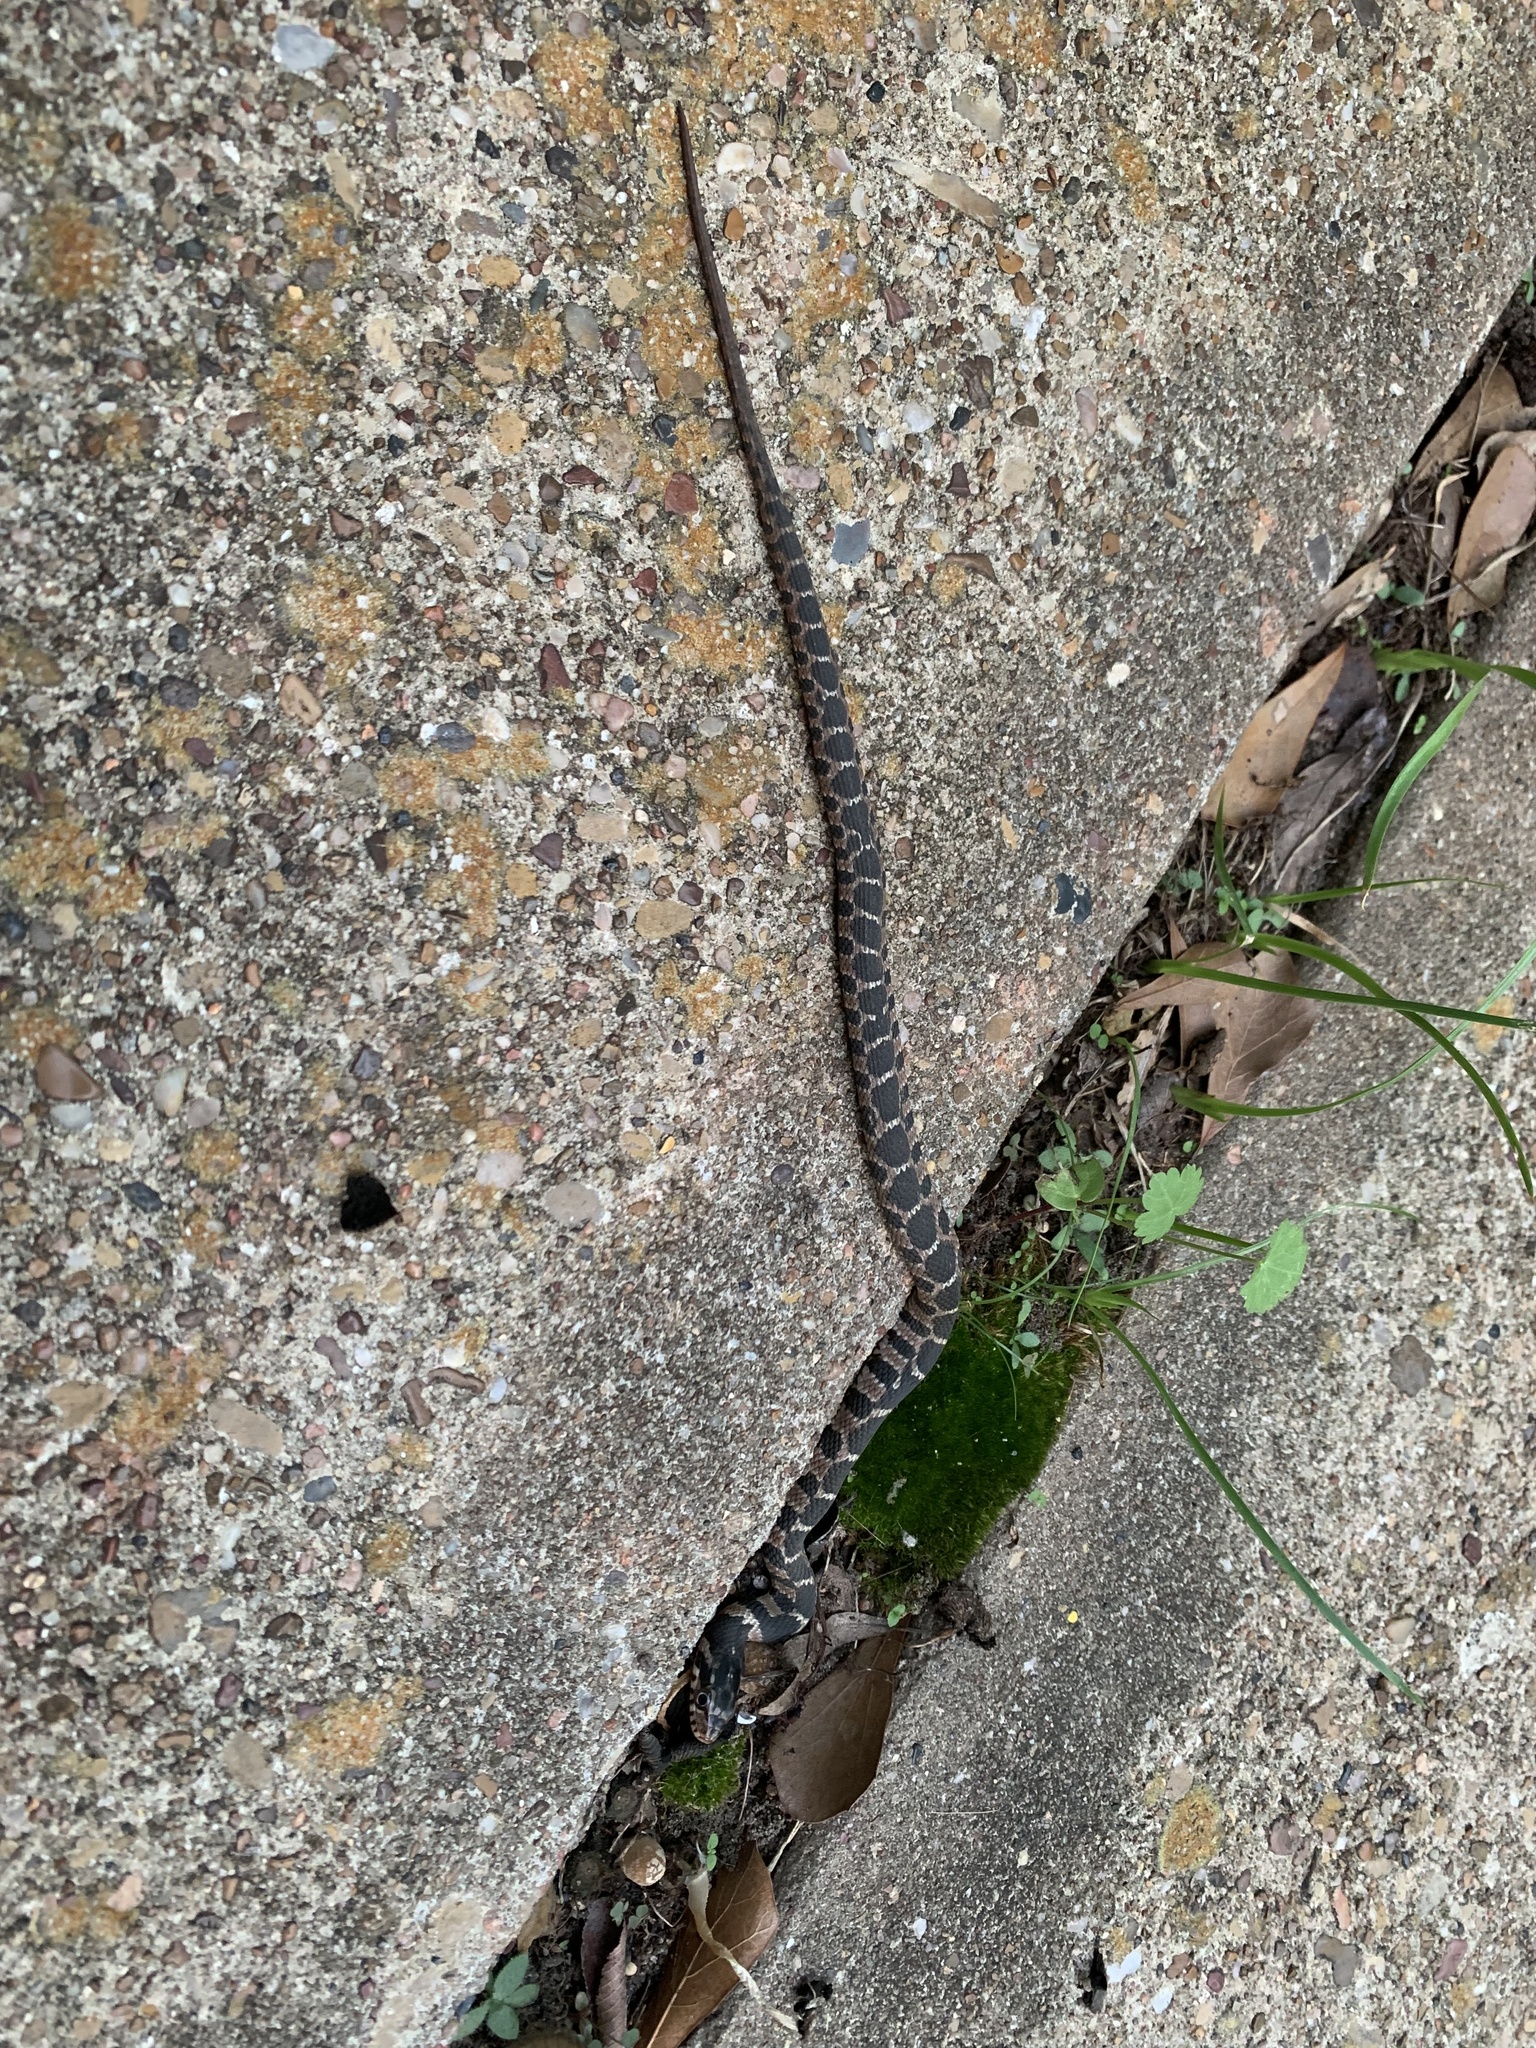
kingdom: Animalia
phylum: Chordata
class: Squamata
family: Colubridae
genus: Nerodia
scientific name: Nerodia erythrogaster
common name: Plainbelly water snake
